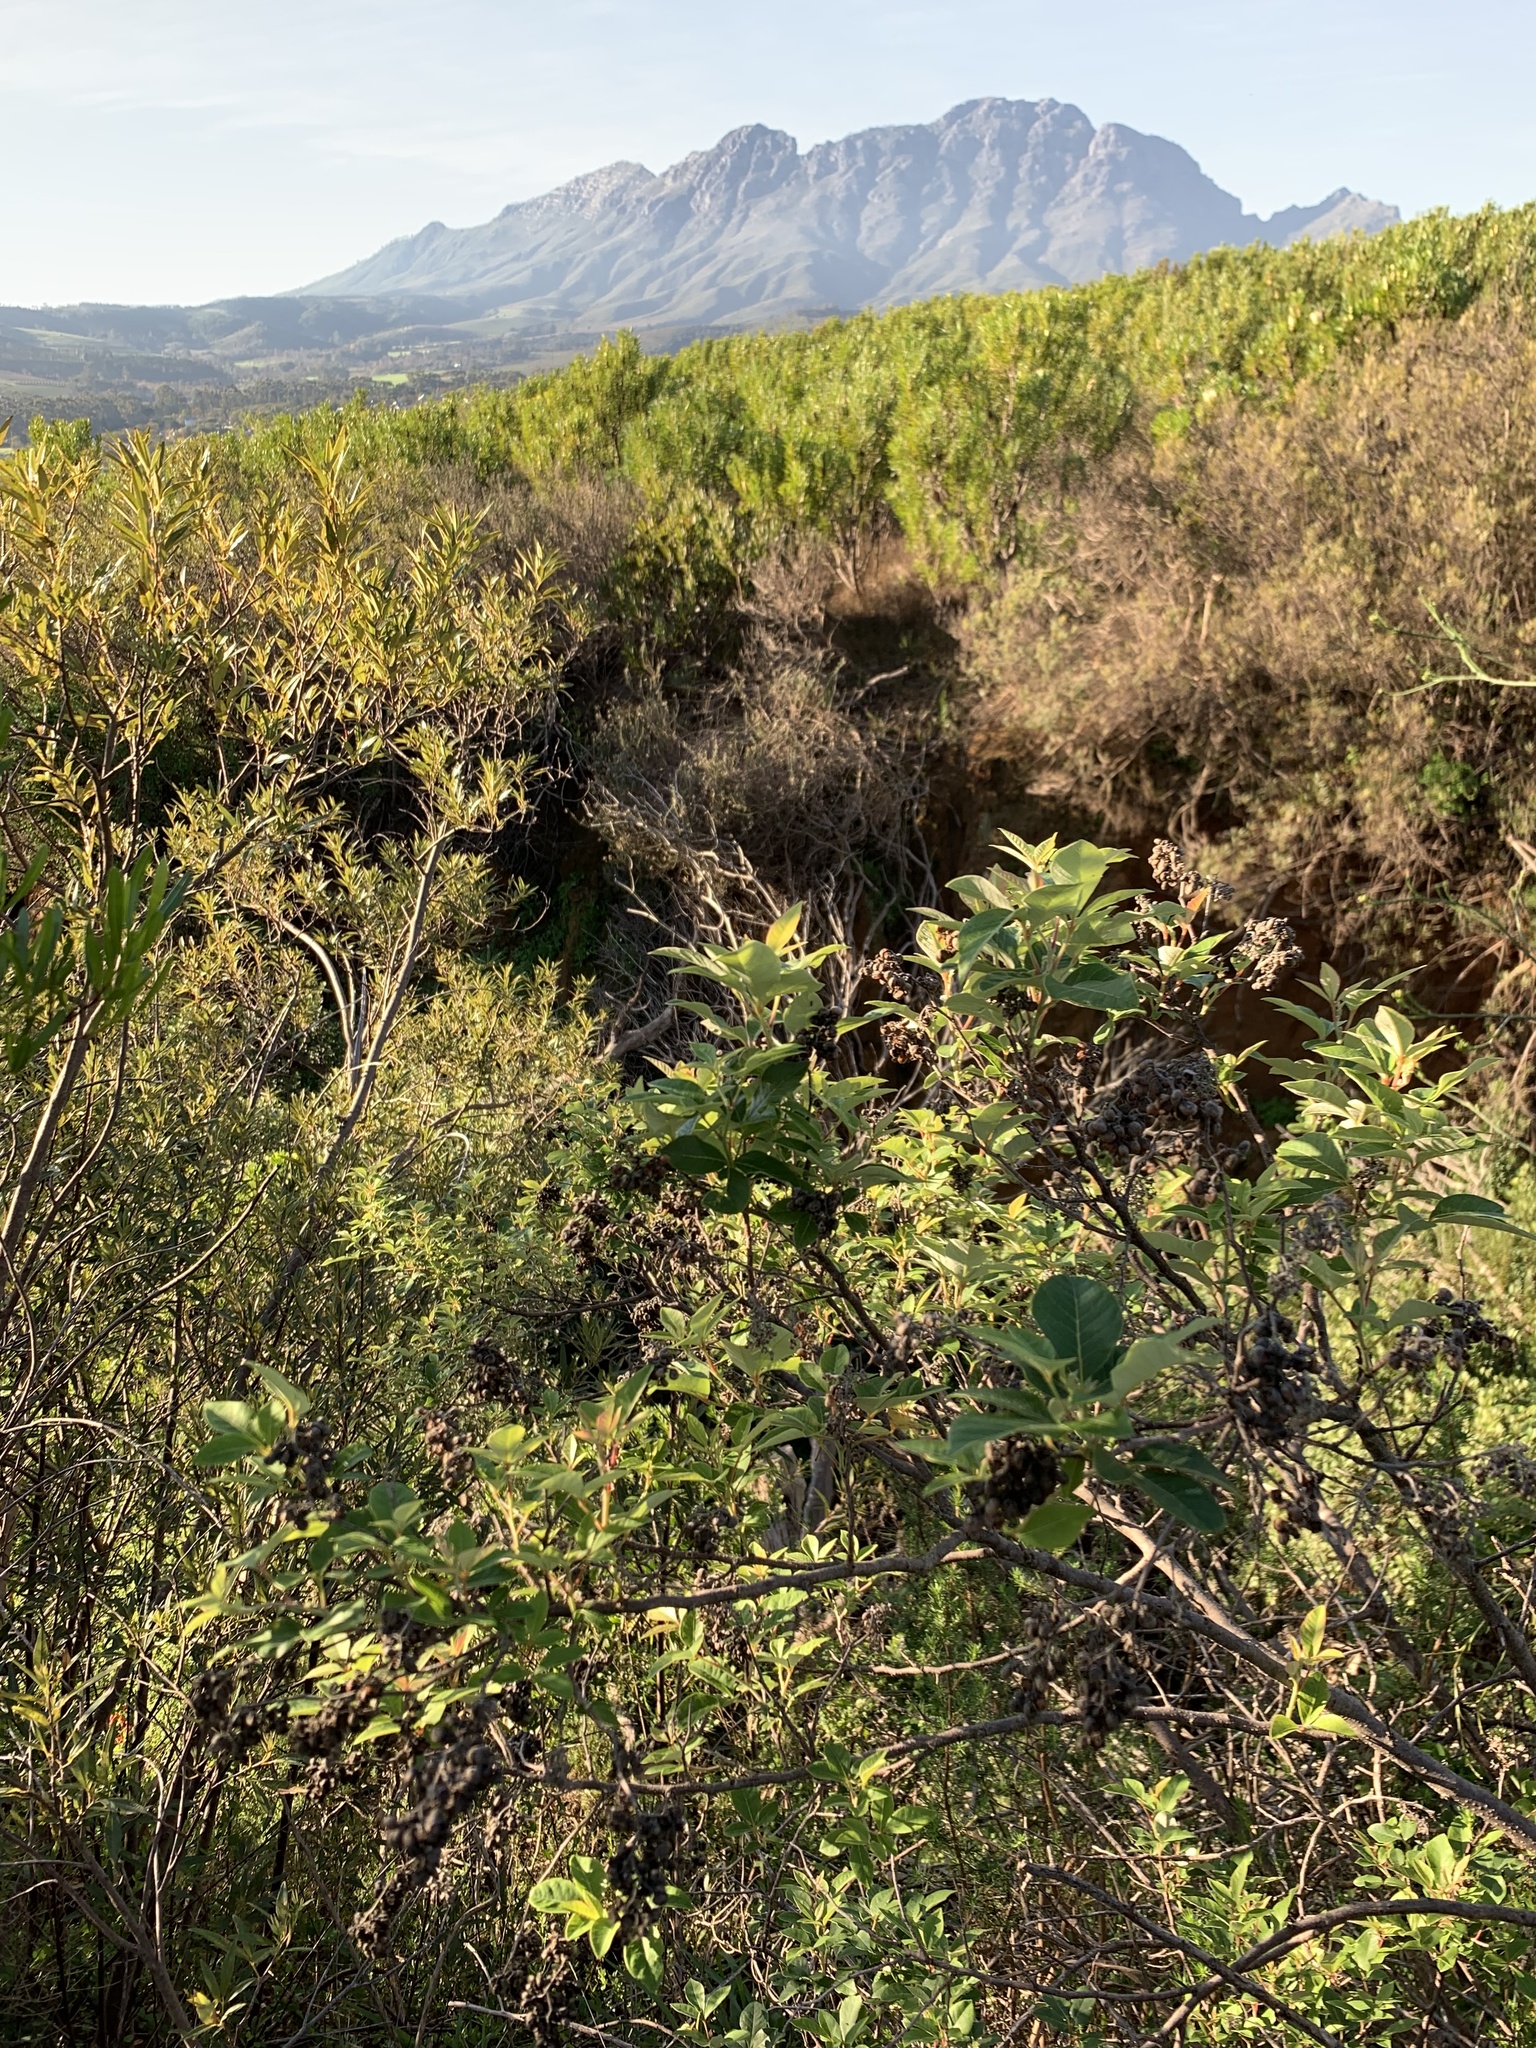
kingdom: Plantae
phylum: Tracheophyta
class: Magnoliopsida
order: Sapindales
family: Anacardiaceae
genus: Searsia
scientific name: Searsia tomentosa
